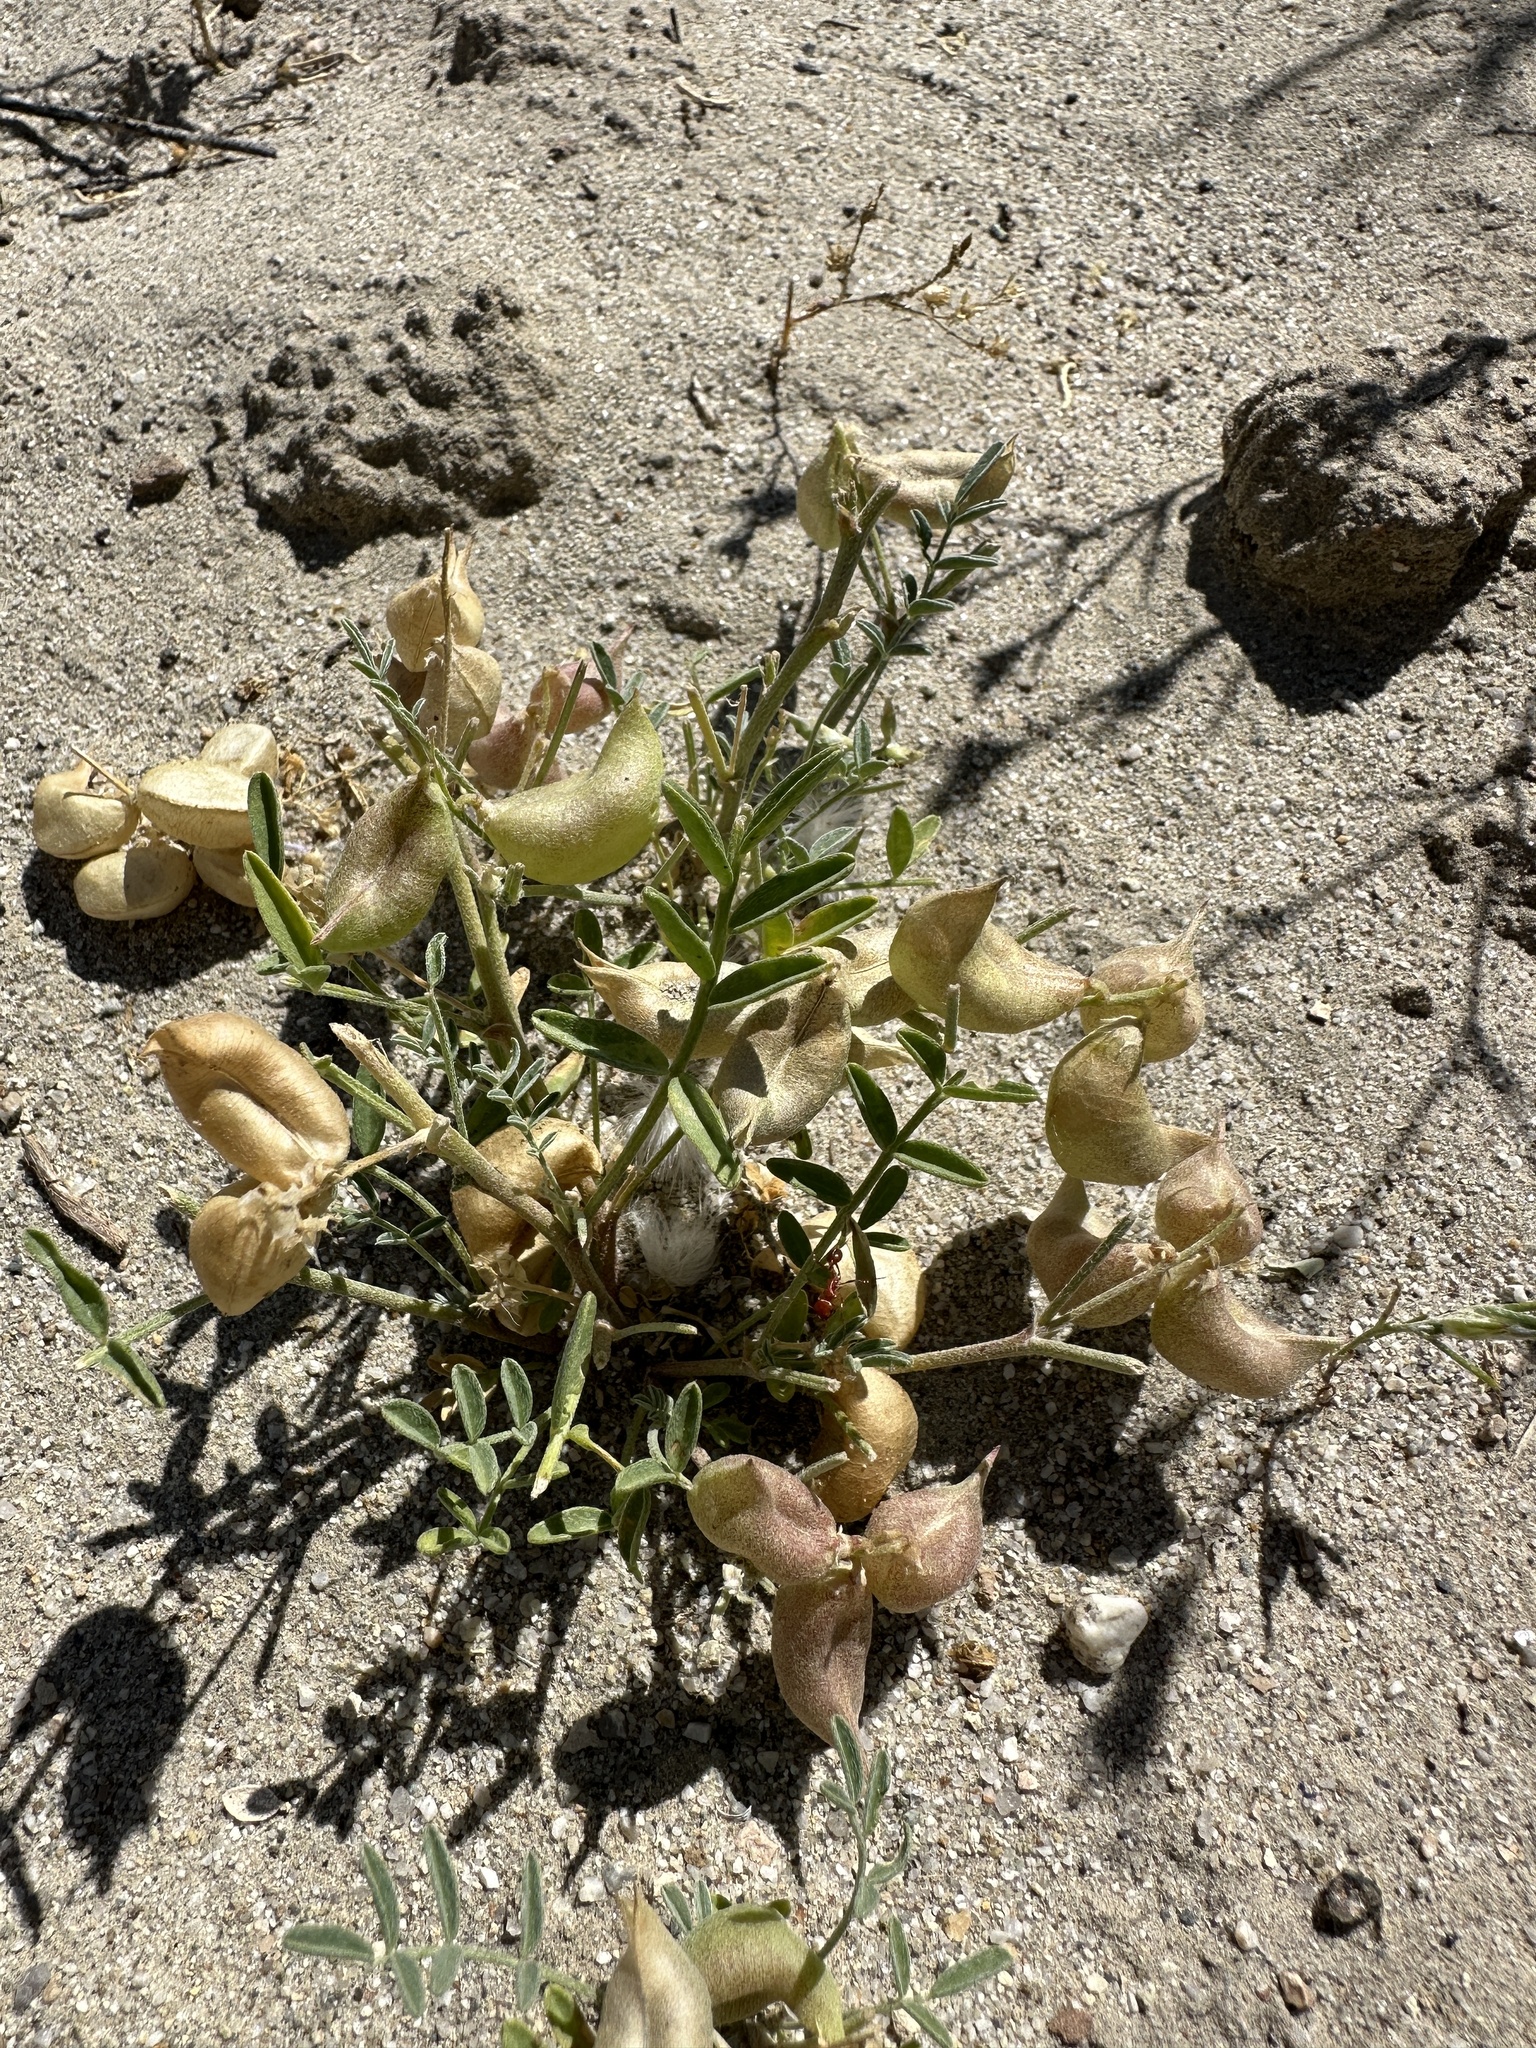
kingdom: Plantae
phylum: Tracheophyta
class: Magnoliopsida
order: Fabales
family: Fabaceae
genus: Astragalus
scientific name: Astragalus geyeri
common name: Geyer's milkvetch
